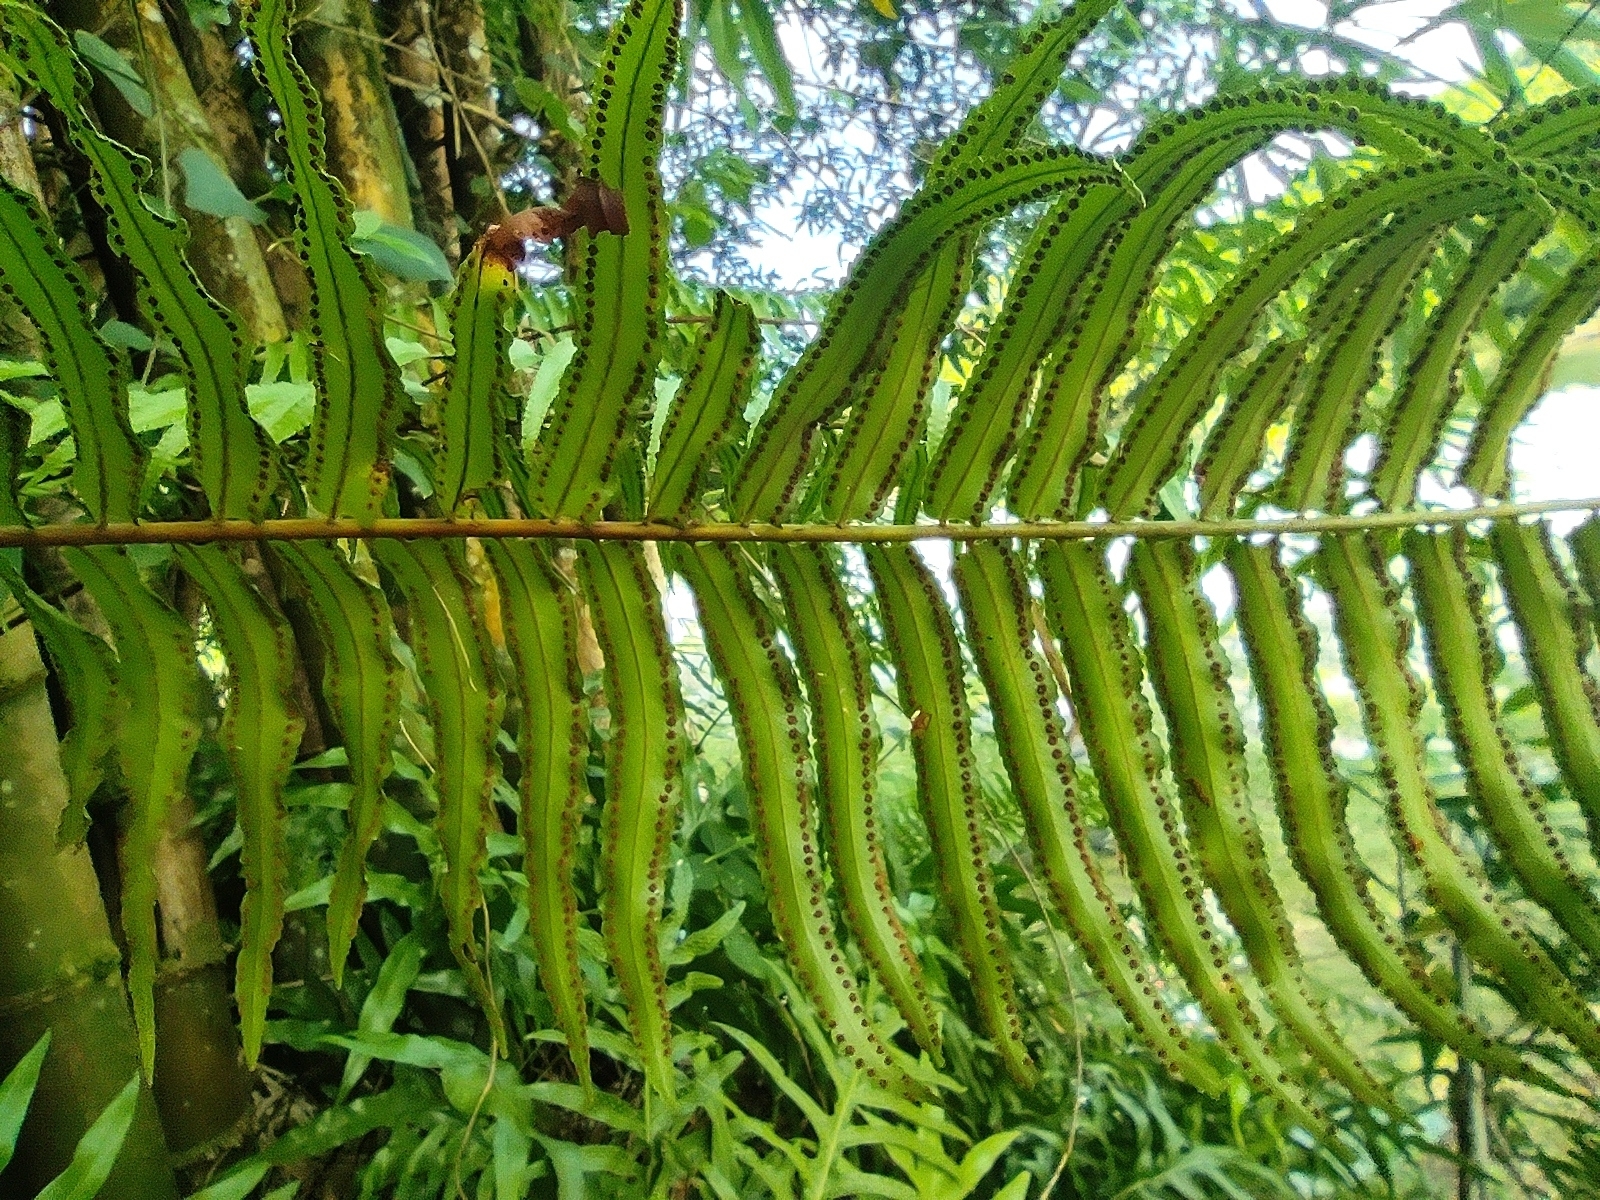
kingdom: Plantae
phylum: Tracheophyta
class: Polypodiopsida
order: Polypodiales
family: Nephrolepidaceae
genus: Nephrolepis
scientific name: Nephrolepis biserrata
